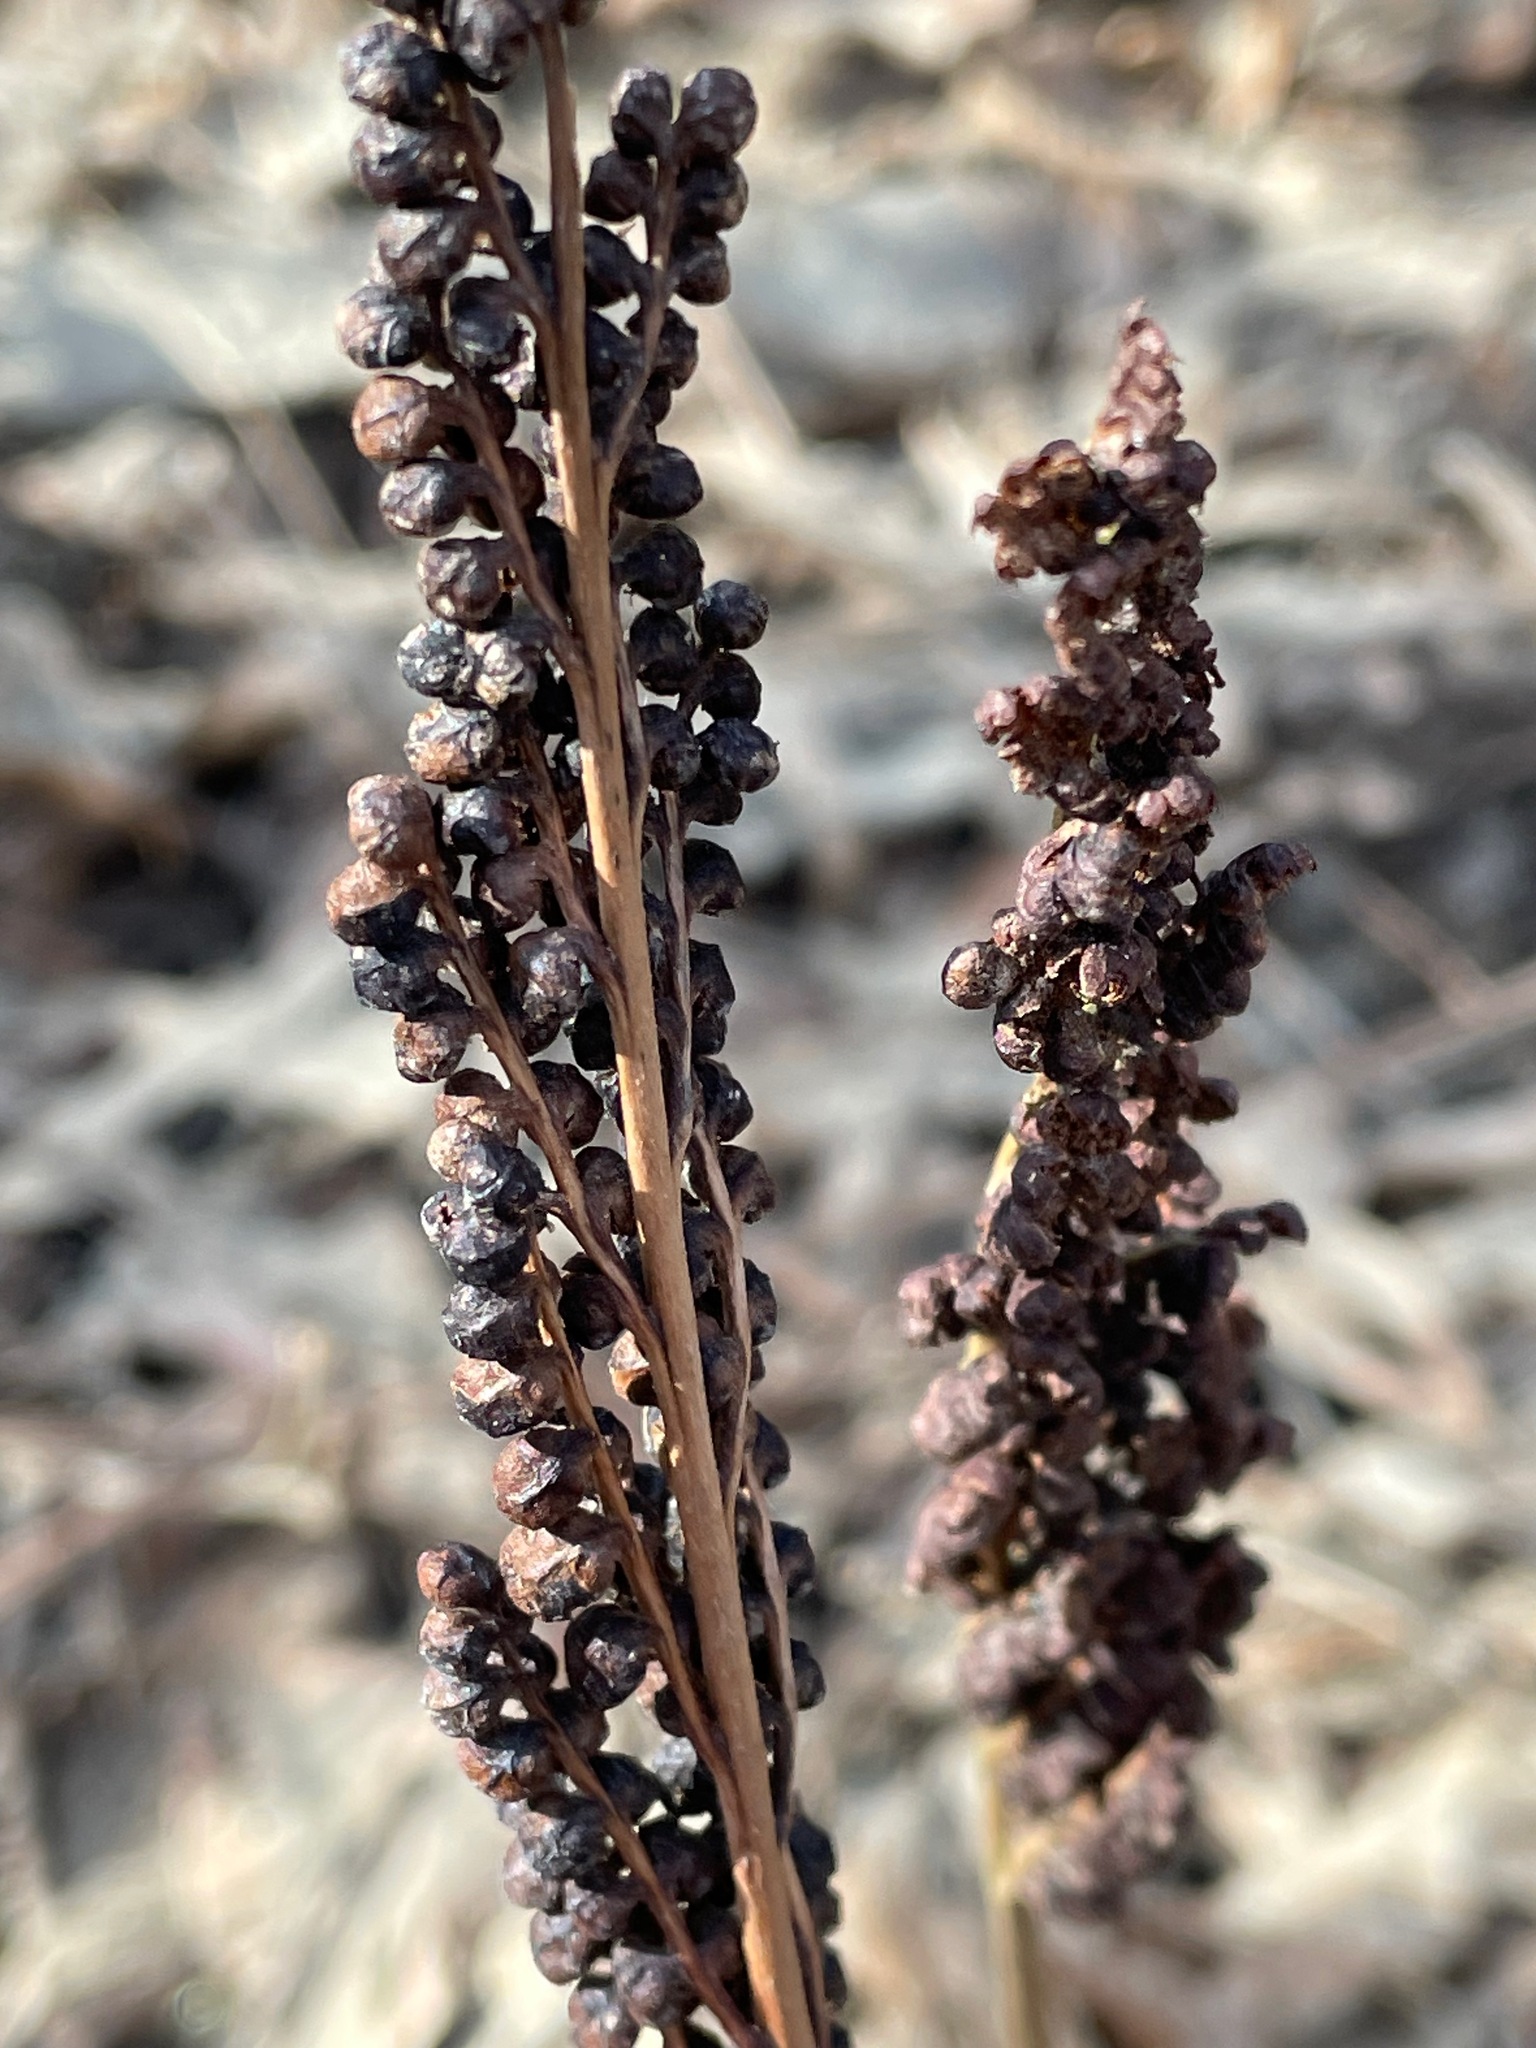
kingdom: Plantae
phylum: Tracheophyta
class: Polypodiopsida
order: Polypodiales
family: Onocleaceae
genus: Onoclea
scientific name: Onoclea sensibilis
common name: Sensitive fern
